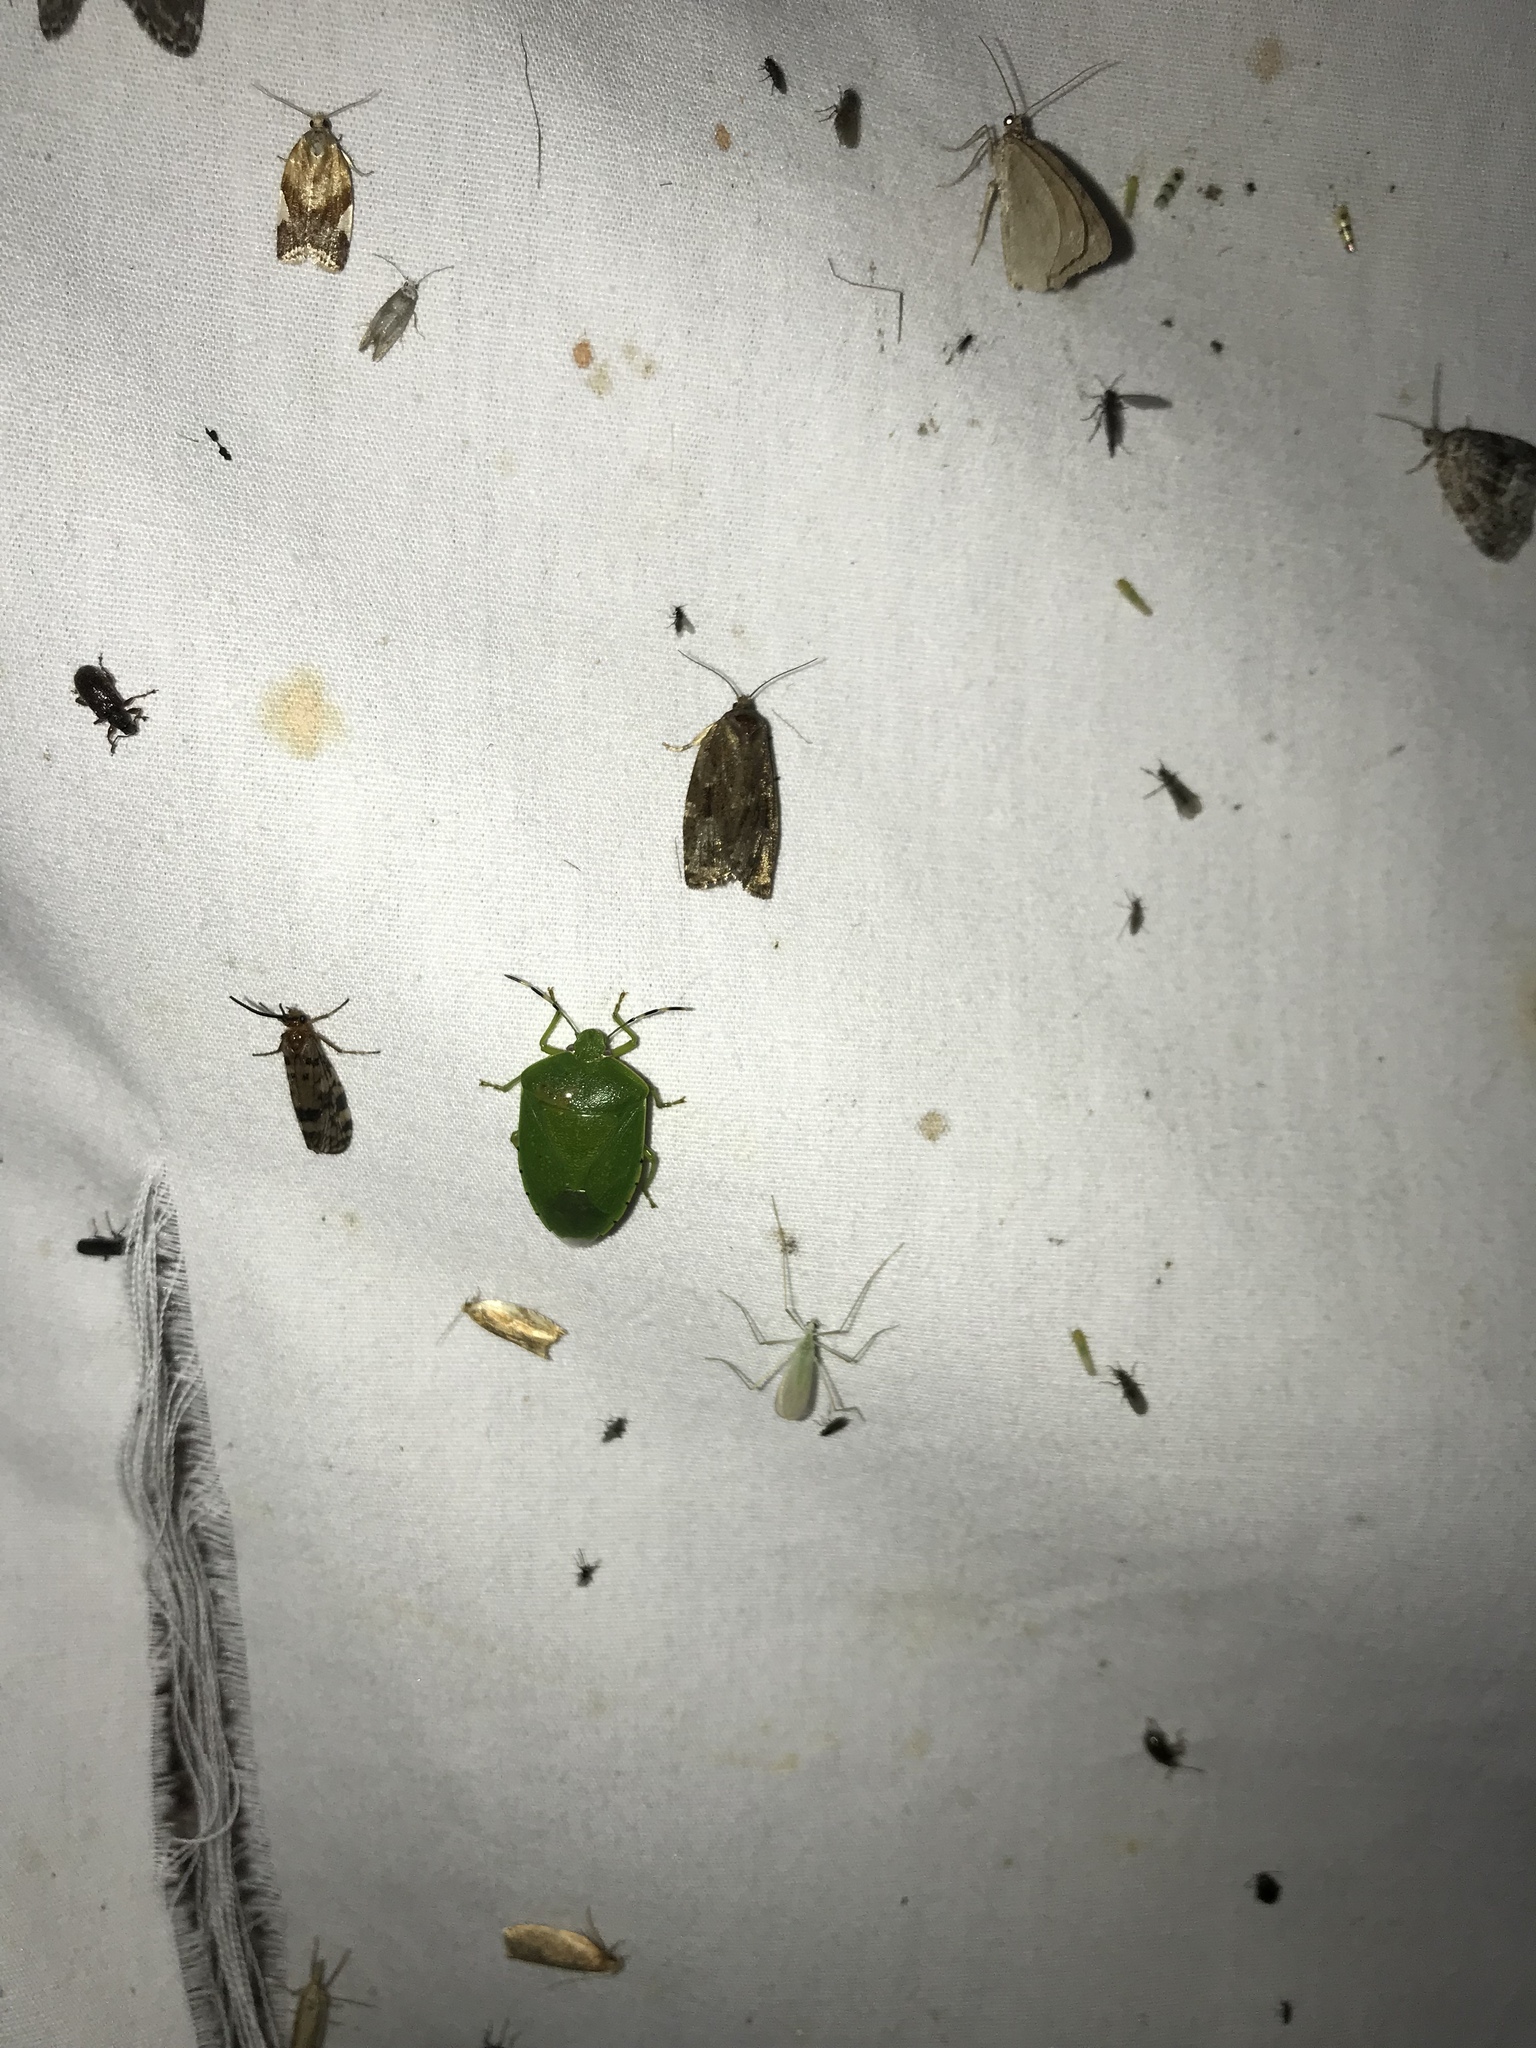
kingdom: Animalia
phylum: Arthropoda
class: Insecta
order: Hemiptera
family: Pentatomidae
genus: Chinavia
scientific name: Chinavia hilaris
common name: Green stink bug
